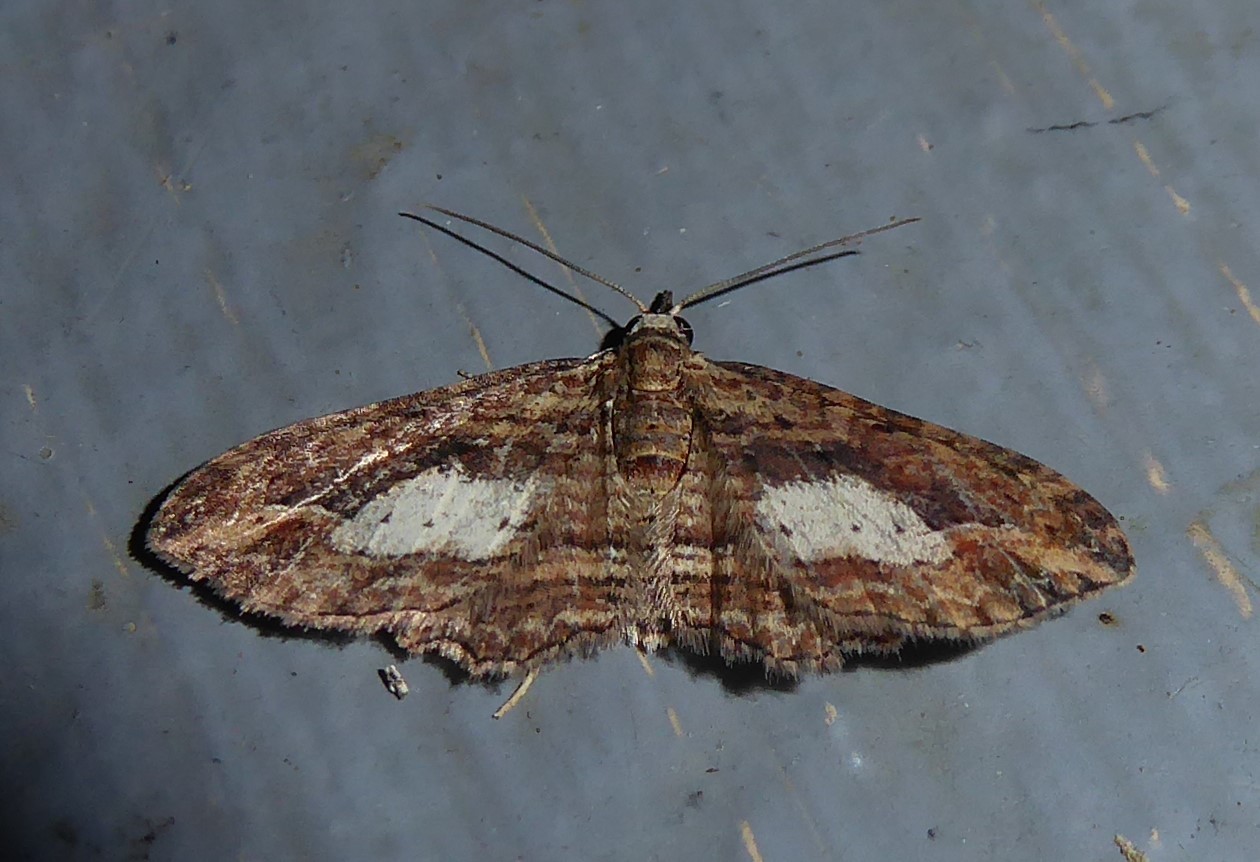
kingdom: Animalia
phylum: Arthropoda
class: Insecta
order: Lepidoptera
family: Geometridae
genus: Chloroclystis
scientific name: Chloroclystis filata
